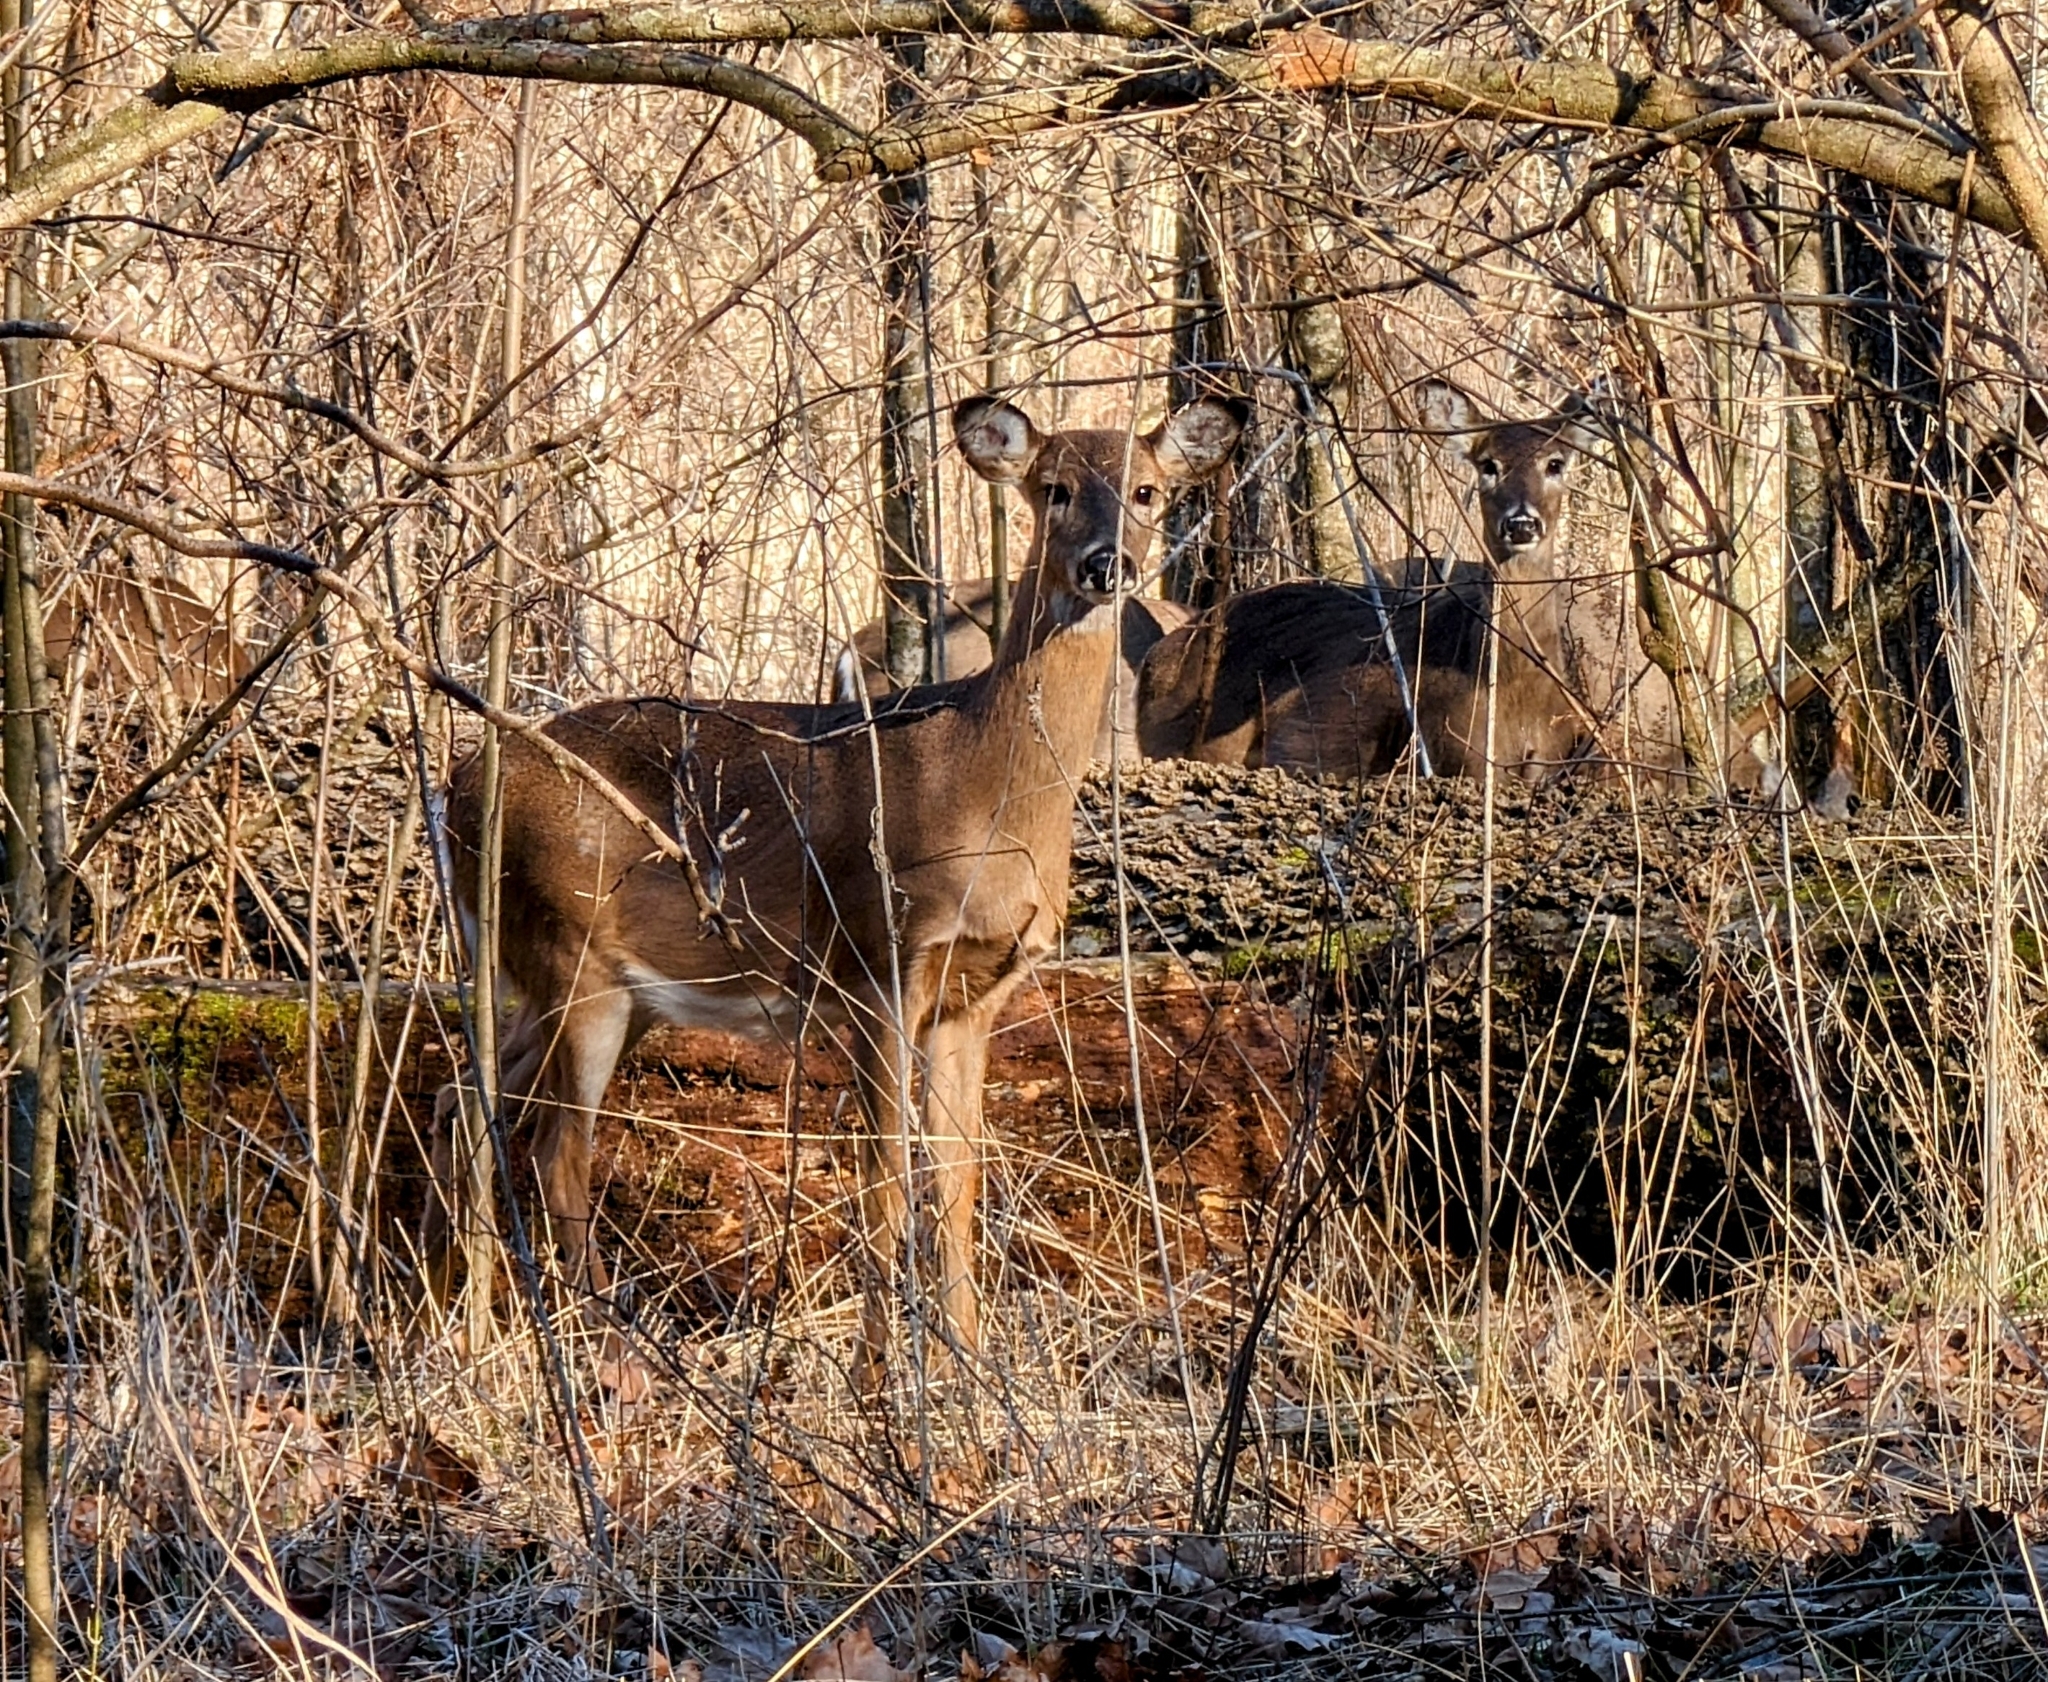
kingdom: Animalia
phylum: Chordata
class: Mammalia
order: Artiodactyla
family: Cervidae
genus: Odocoileus
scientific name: Odocoileus virginianus
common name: White-tailed deer
